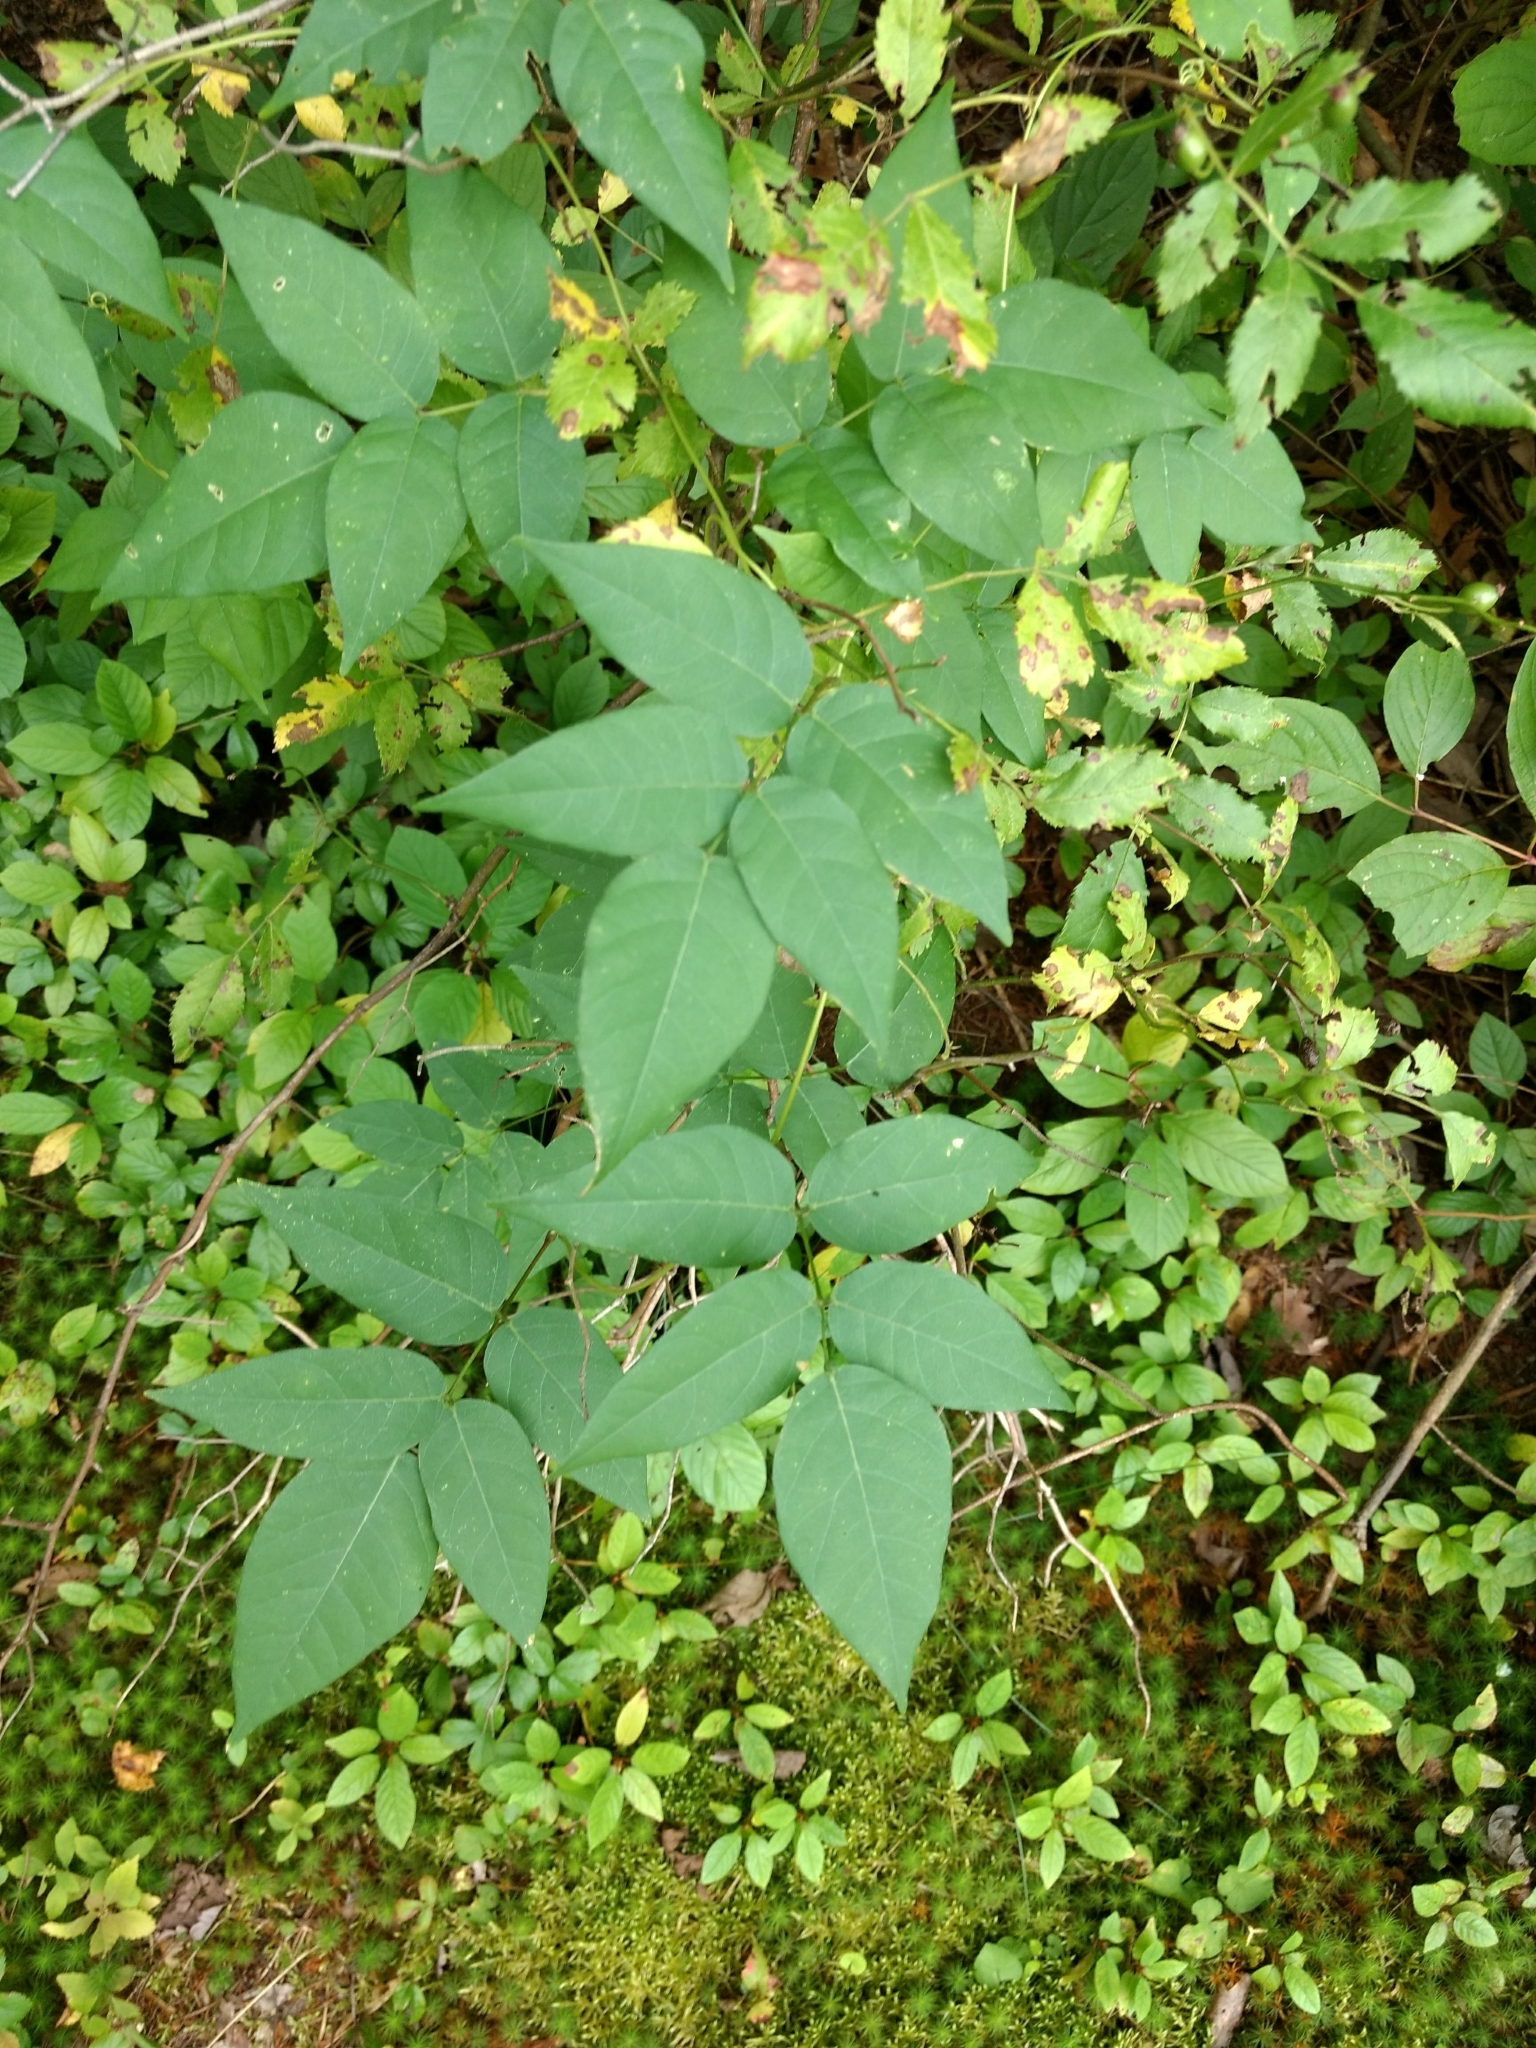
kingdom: Plantae
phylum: Tracheophyta
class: Magnoliopsida
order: Fabales
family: Fabaceae
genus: Apios
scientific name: Apios americana
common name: American potato-bean
